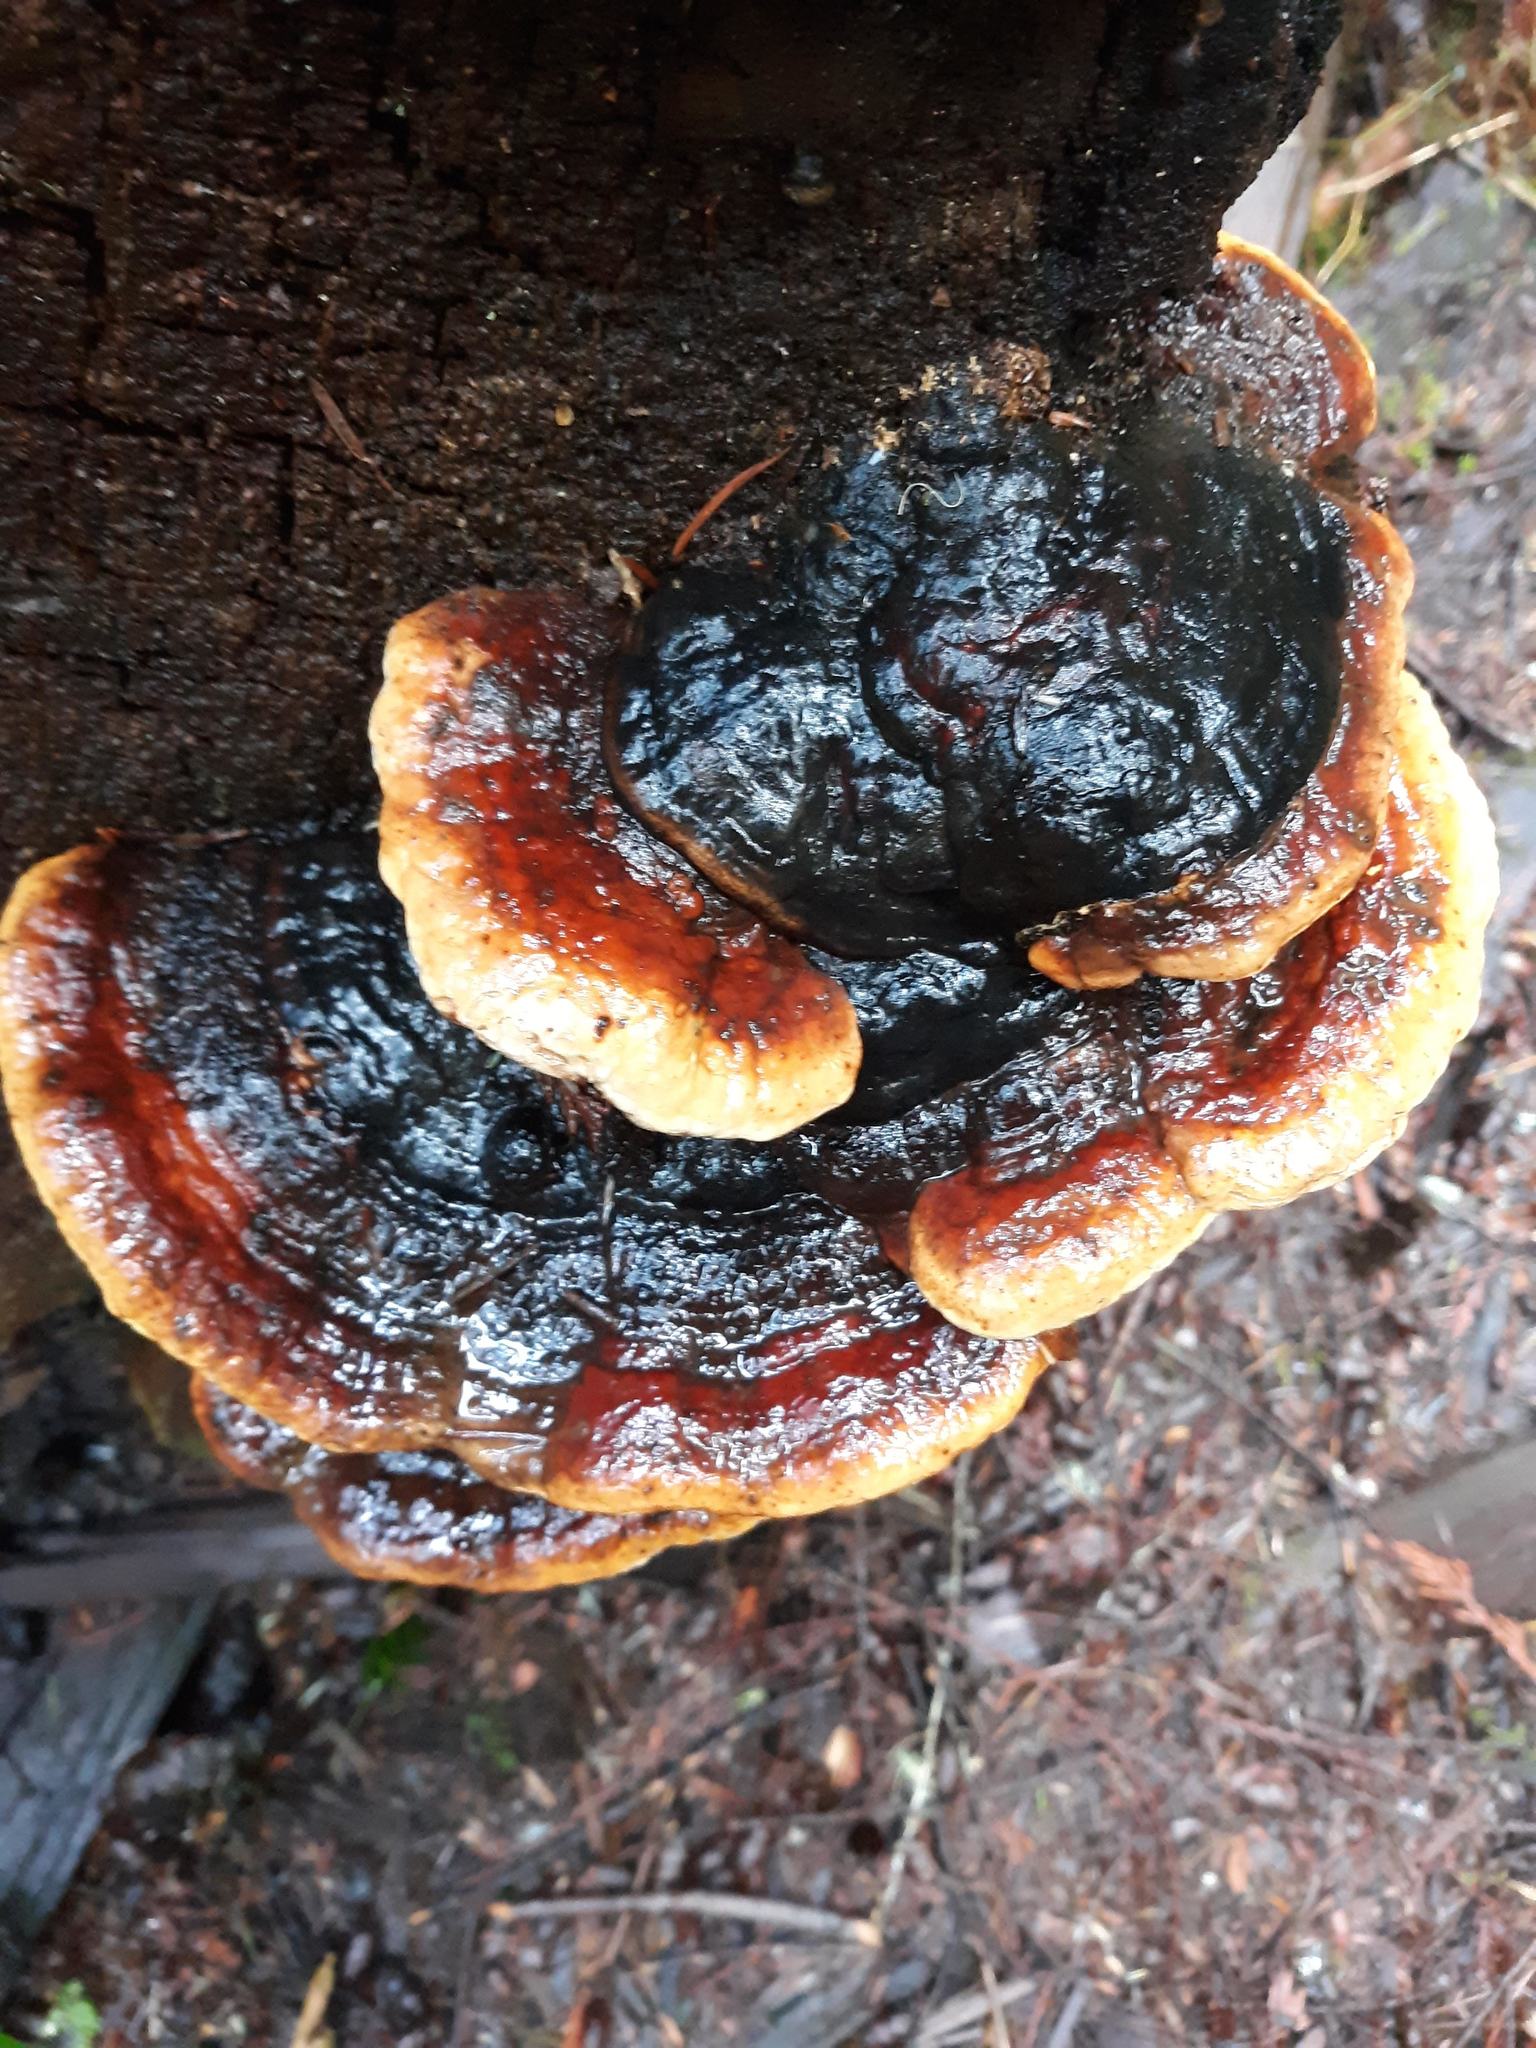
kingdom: Fungi
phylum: Basidiomycota
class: Agaricomycetes
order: Polyporales
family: Fomitopsidaceae
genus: Fomitopsis
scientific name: Fomitopsis mounceae
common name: Northern red belt
